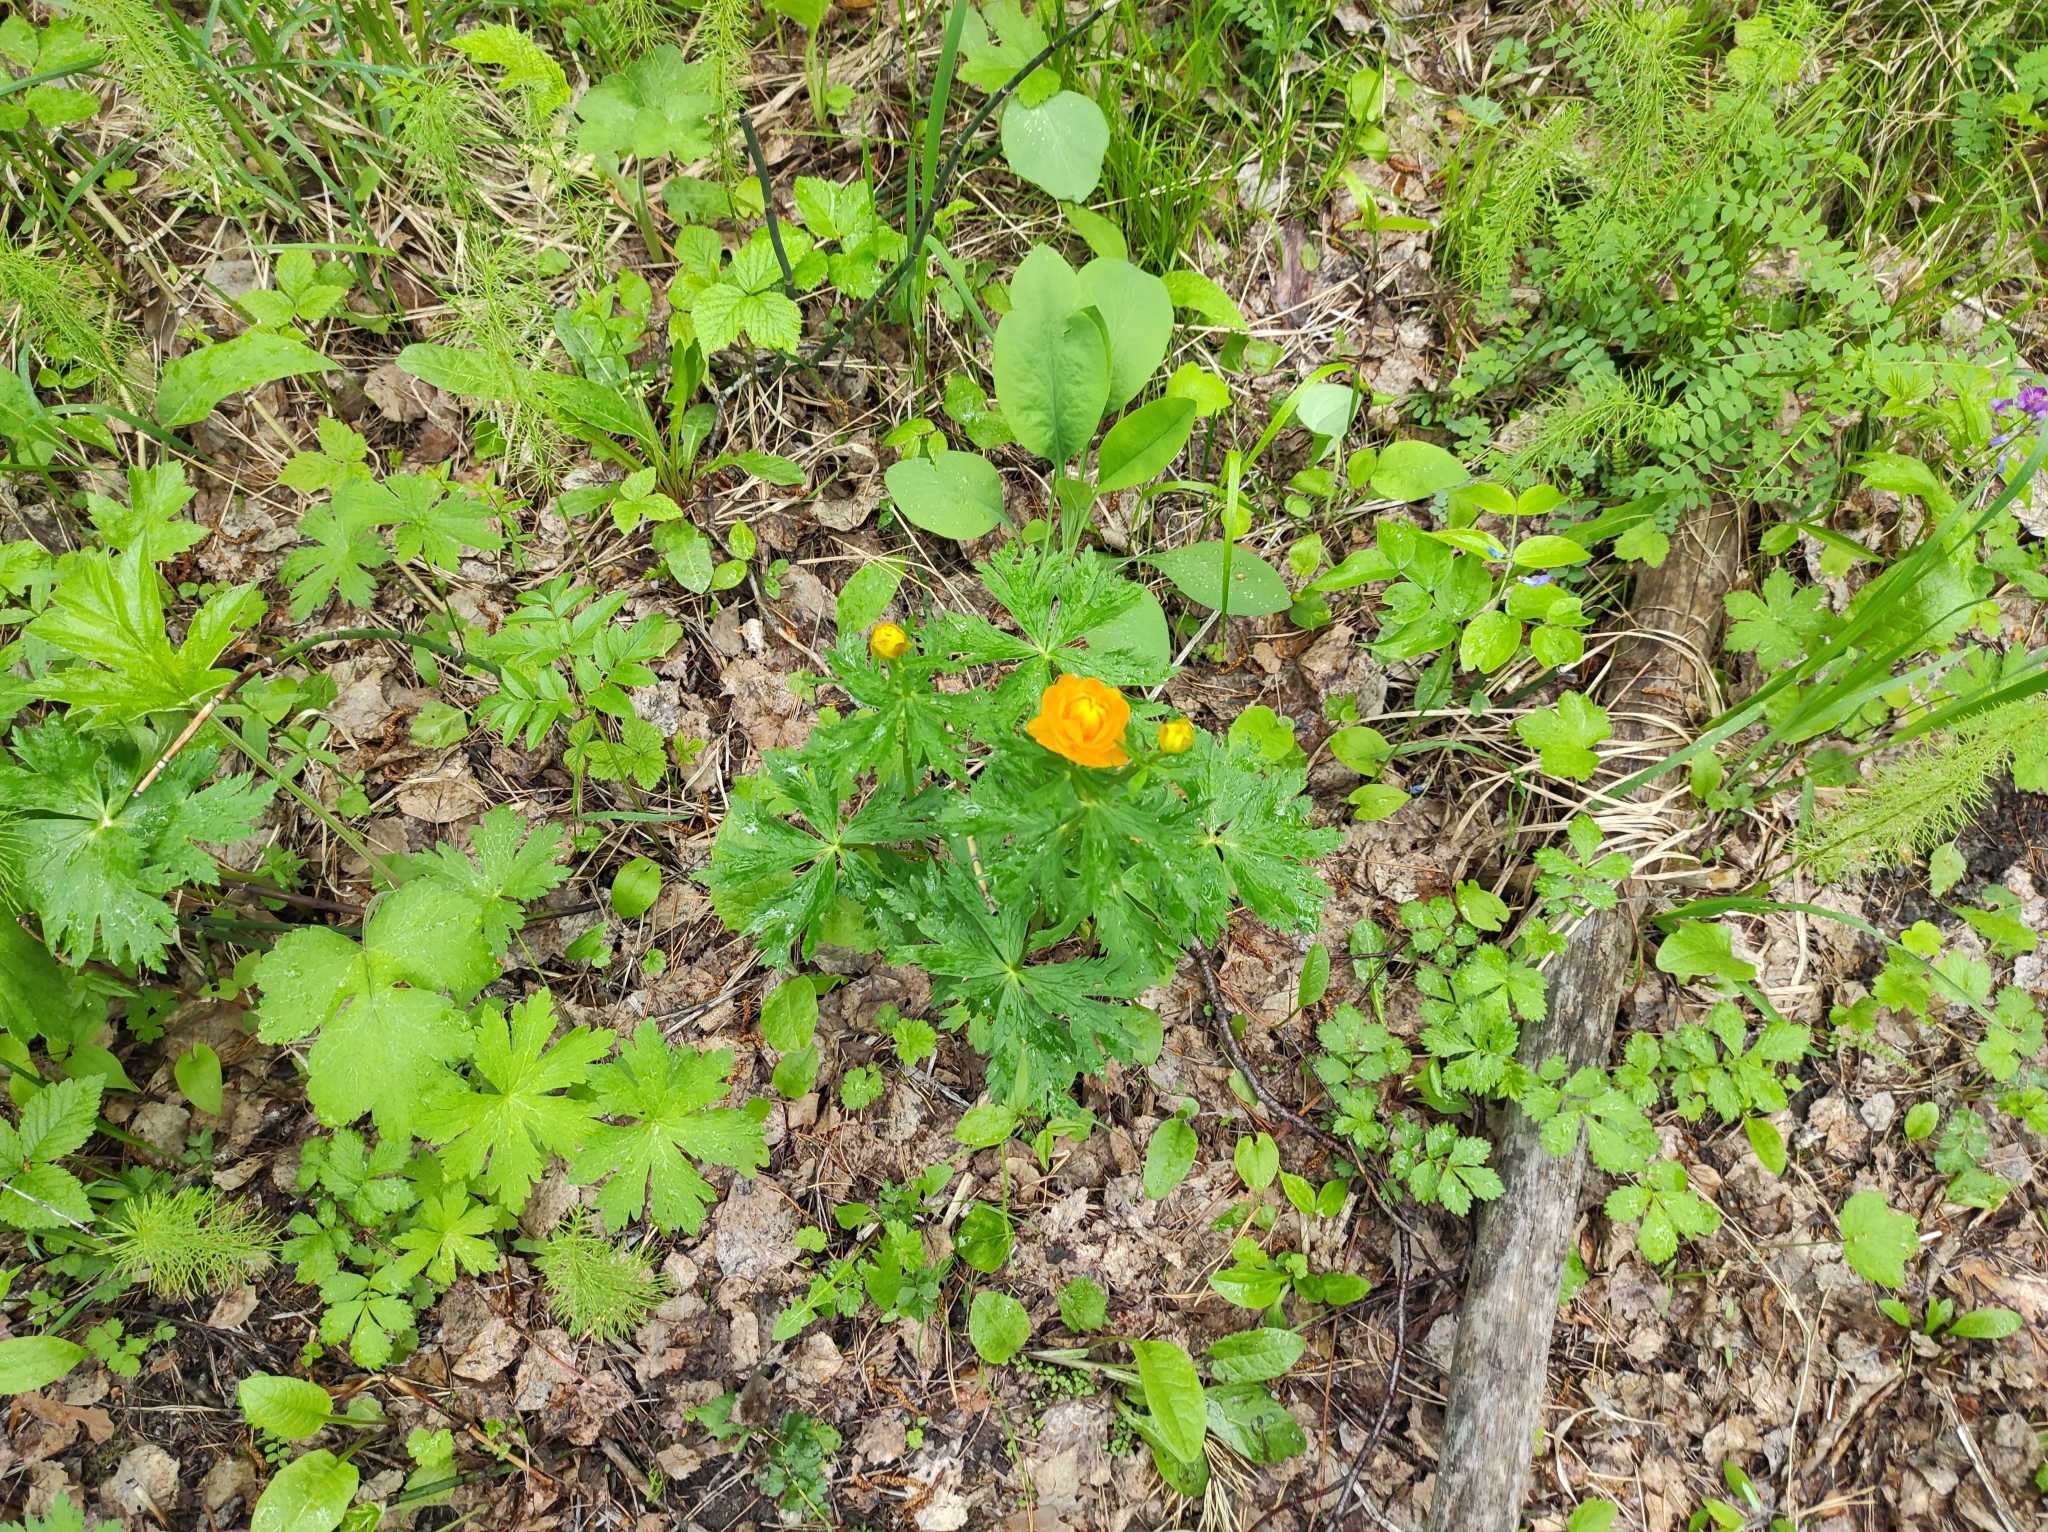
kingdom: Plantae
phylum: Tracheophyta
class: Magnoliopsida
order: Ranunculales
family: Ranunculaceae
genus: Trollius
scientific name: Trollius asiaticus
